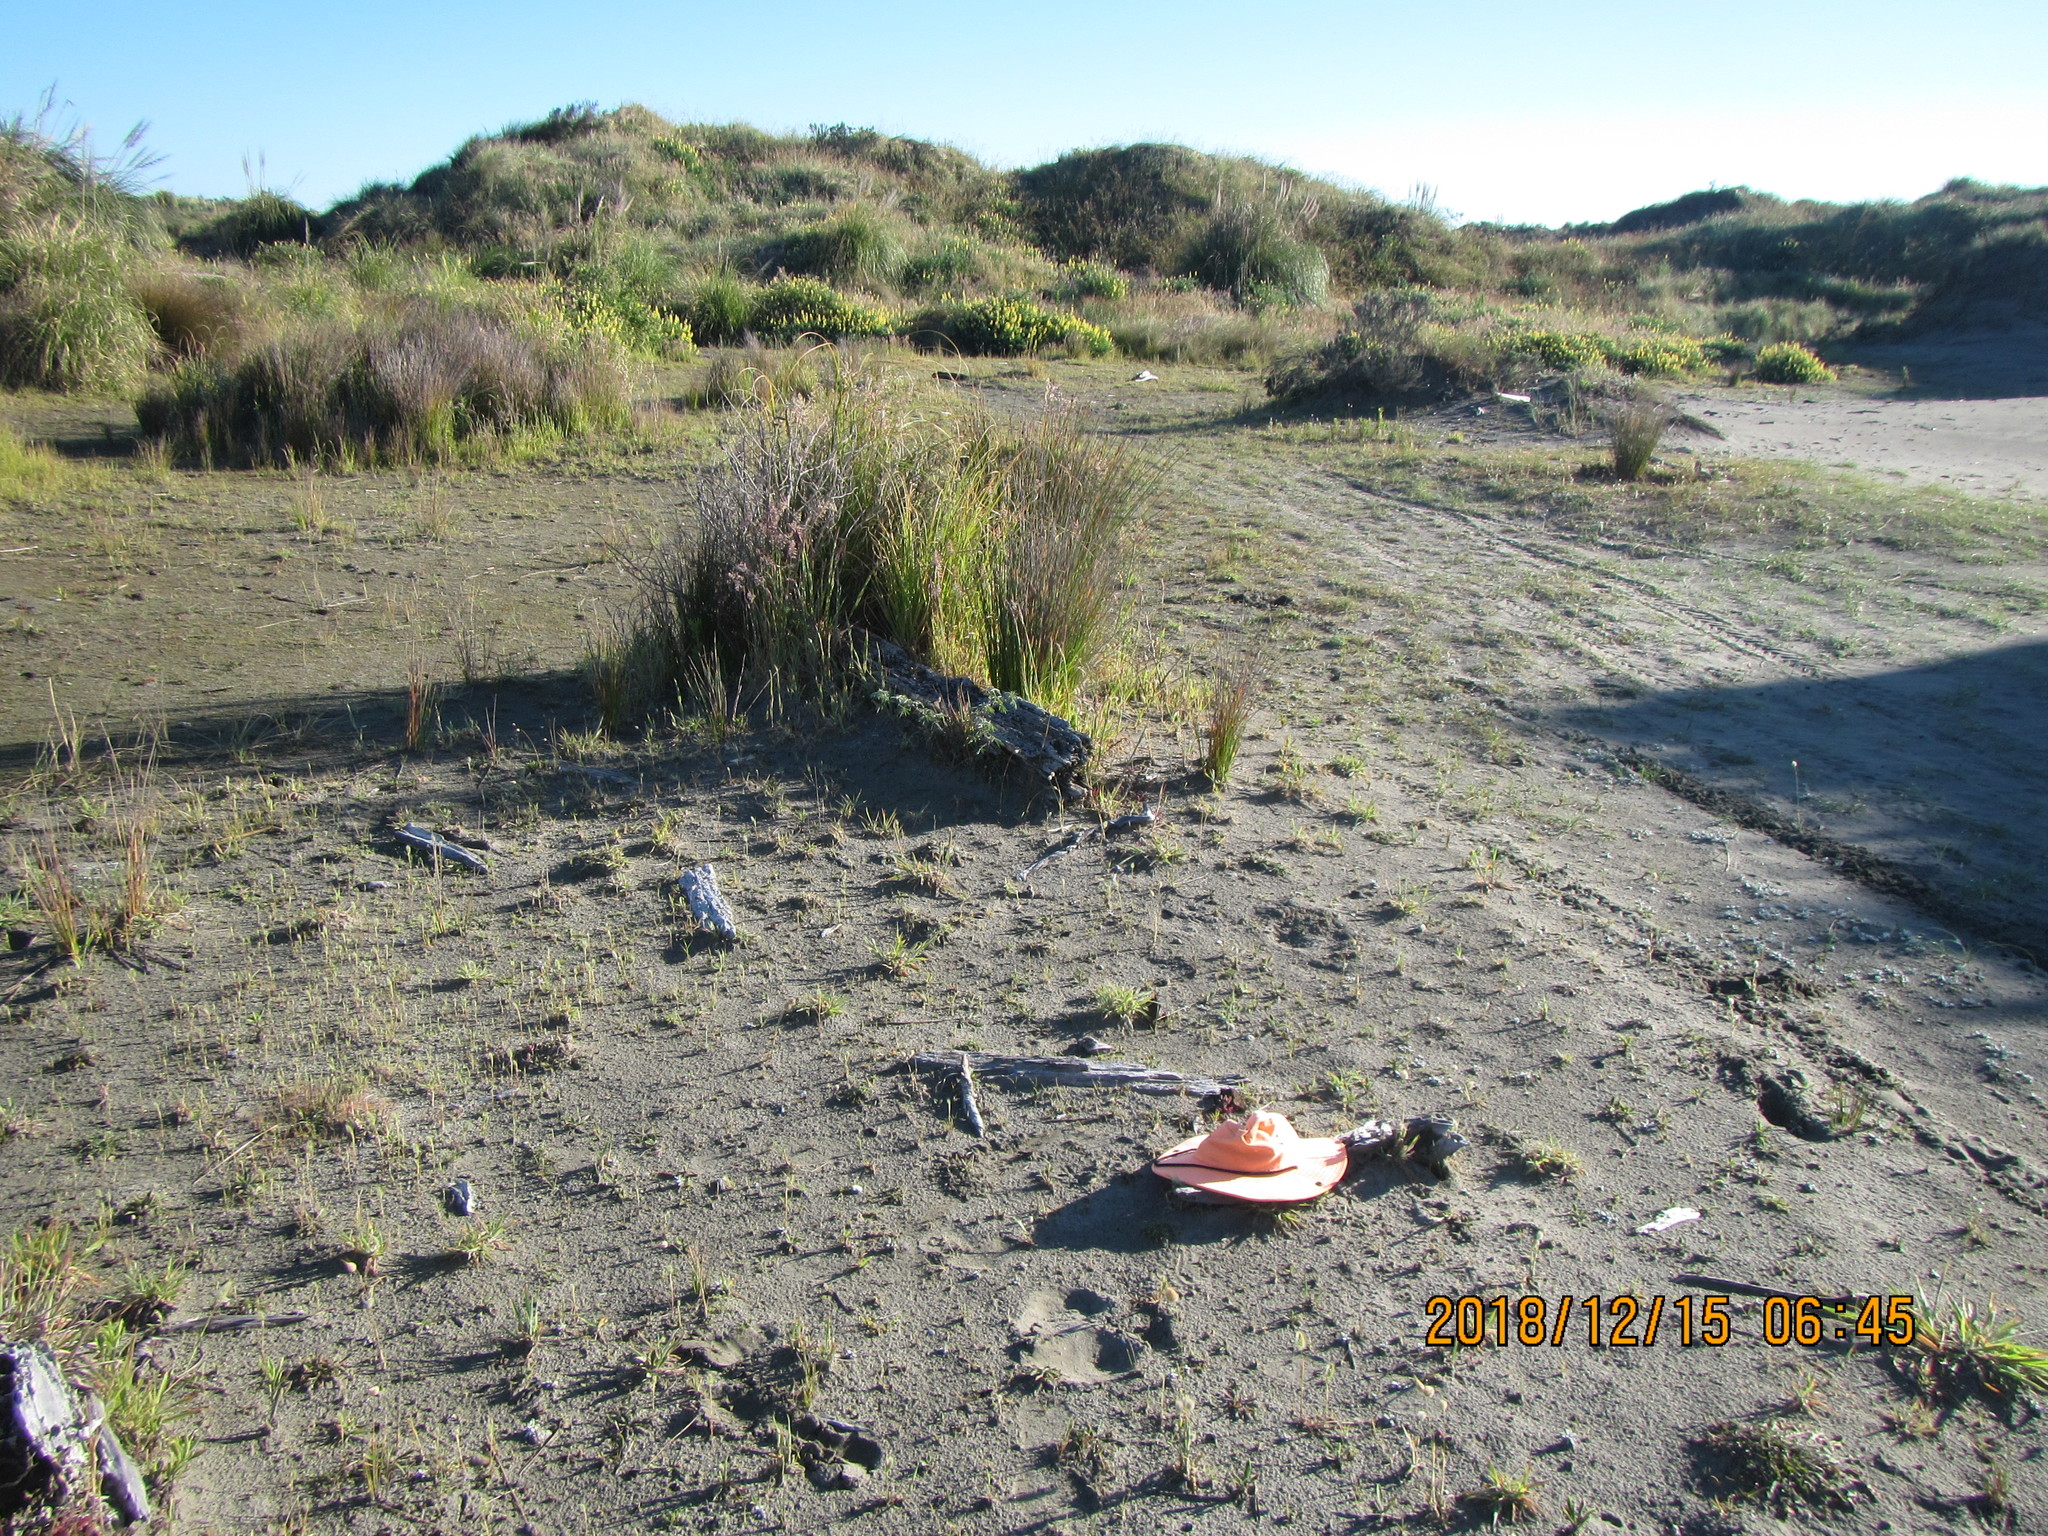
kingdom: Animalia
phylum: Arthropoda
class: Arachnida
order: Araneae
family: Theridiidae
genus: Steatoda
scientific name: Steatoda lepida
